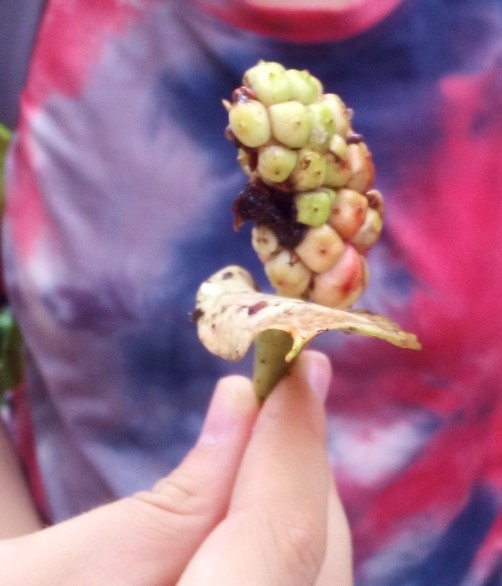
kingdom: Plantae
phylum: Tracheophyta
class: Liliopsida
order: Alismatales
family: Araceae
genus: Calla
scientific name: Calla palustris
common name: Bog arum
